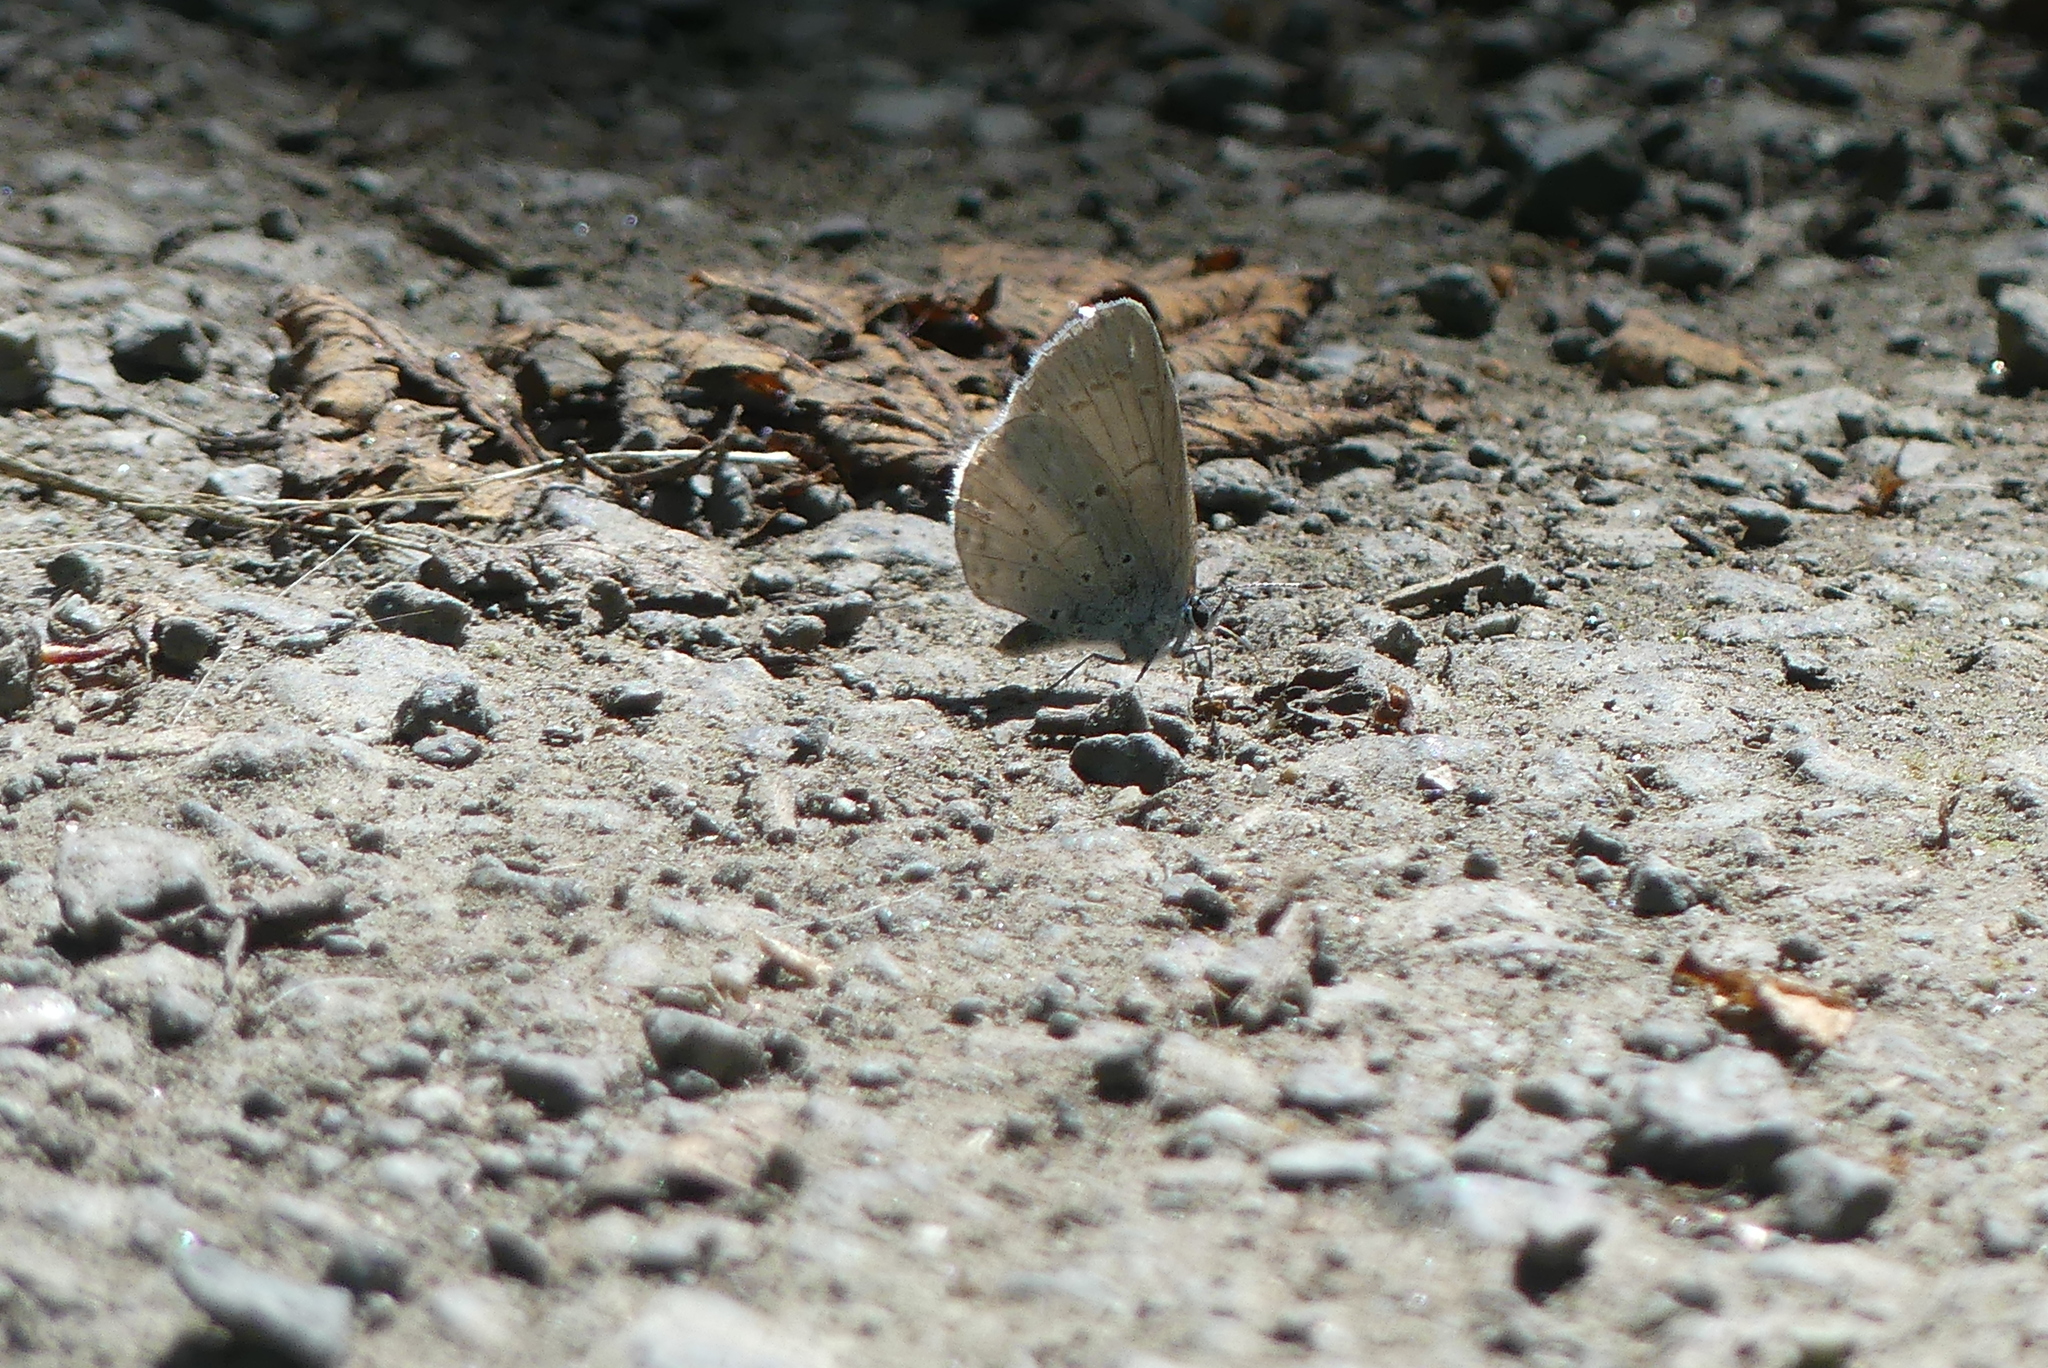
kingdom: Animalia
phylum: Arthropoda
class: Insecta
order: Lepidoptera
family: Lycaenidae
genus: Celastrina
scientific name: Celastrina ladon
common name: Spring azure
